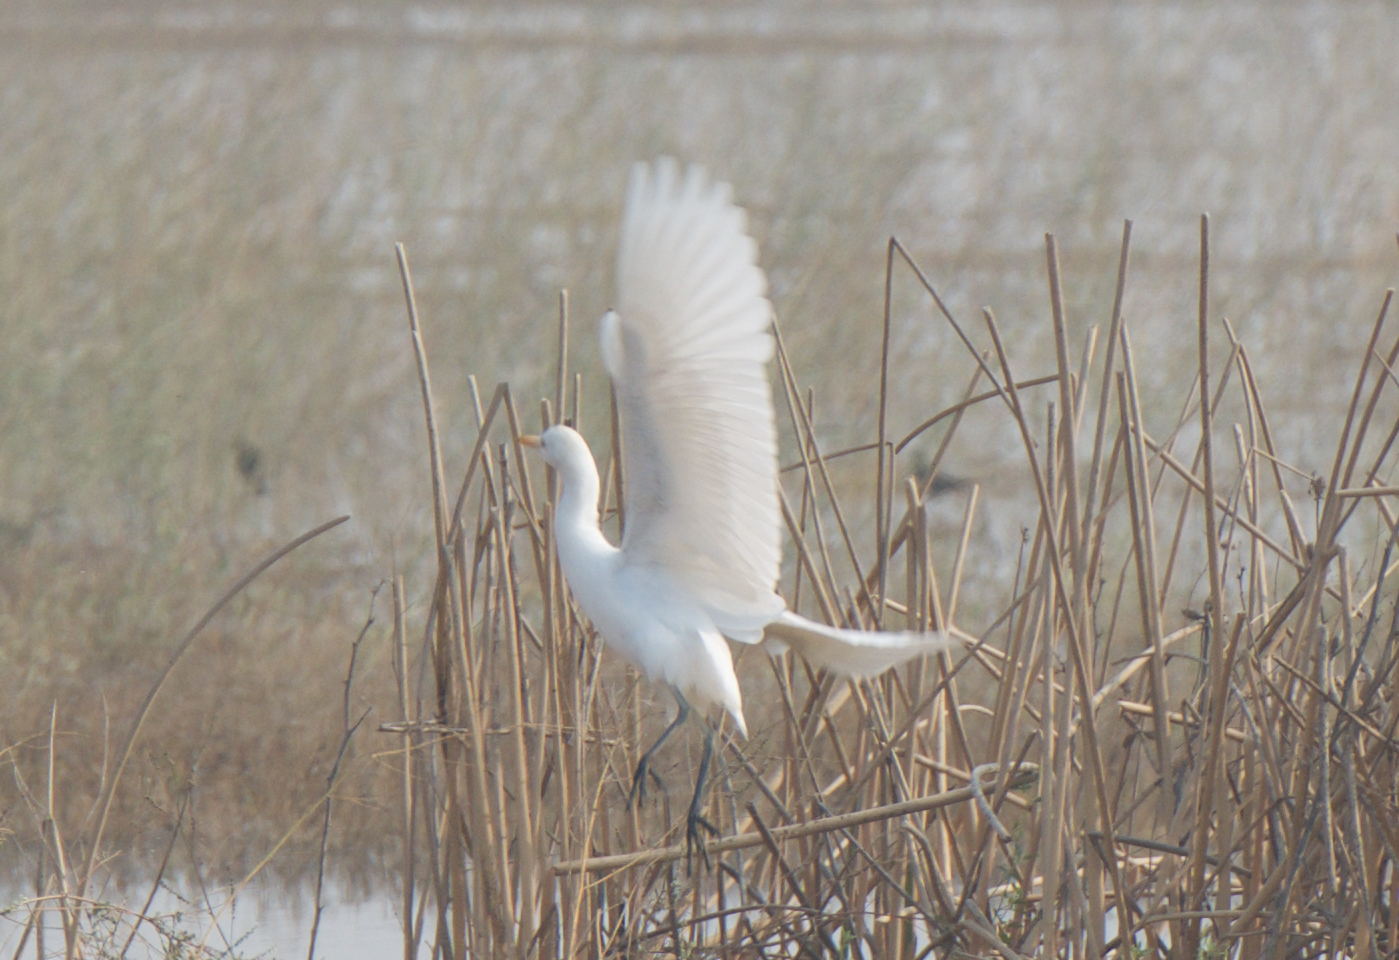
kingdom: Animalia
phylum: Chordata
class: Aves
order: Pelecaniformes
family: Ardeidae
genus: Bubulcus
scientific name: Bubulcus ibis
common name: Cattle egret
